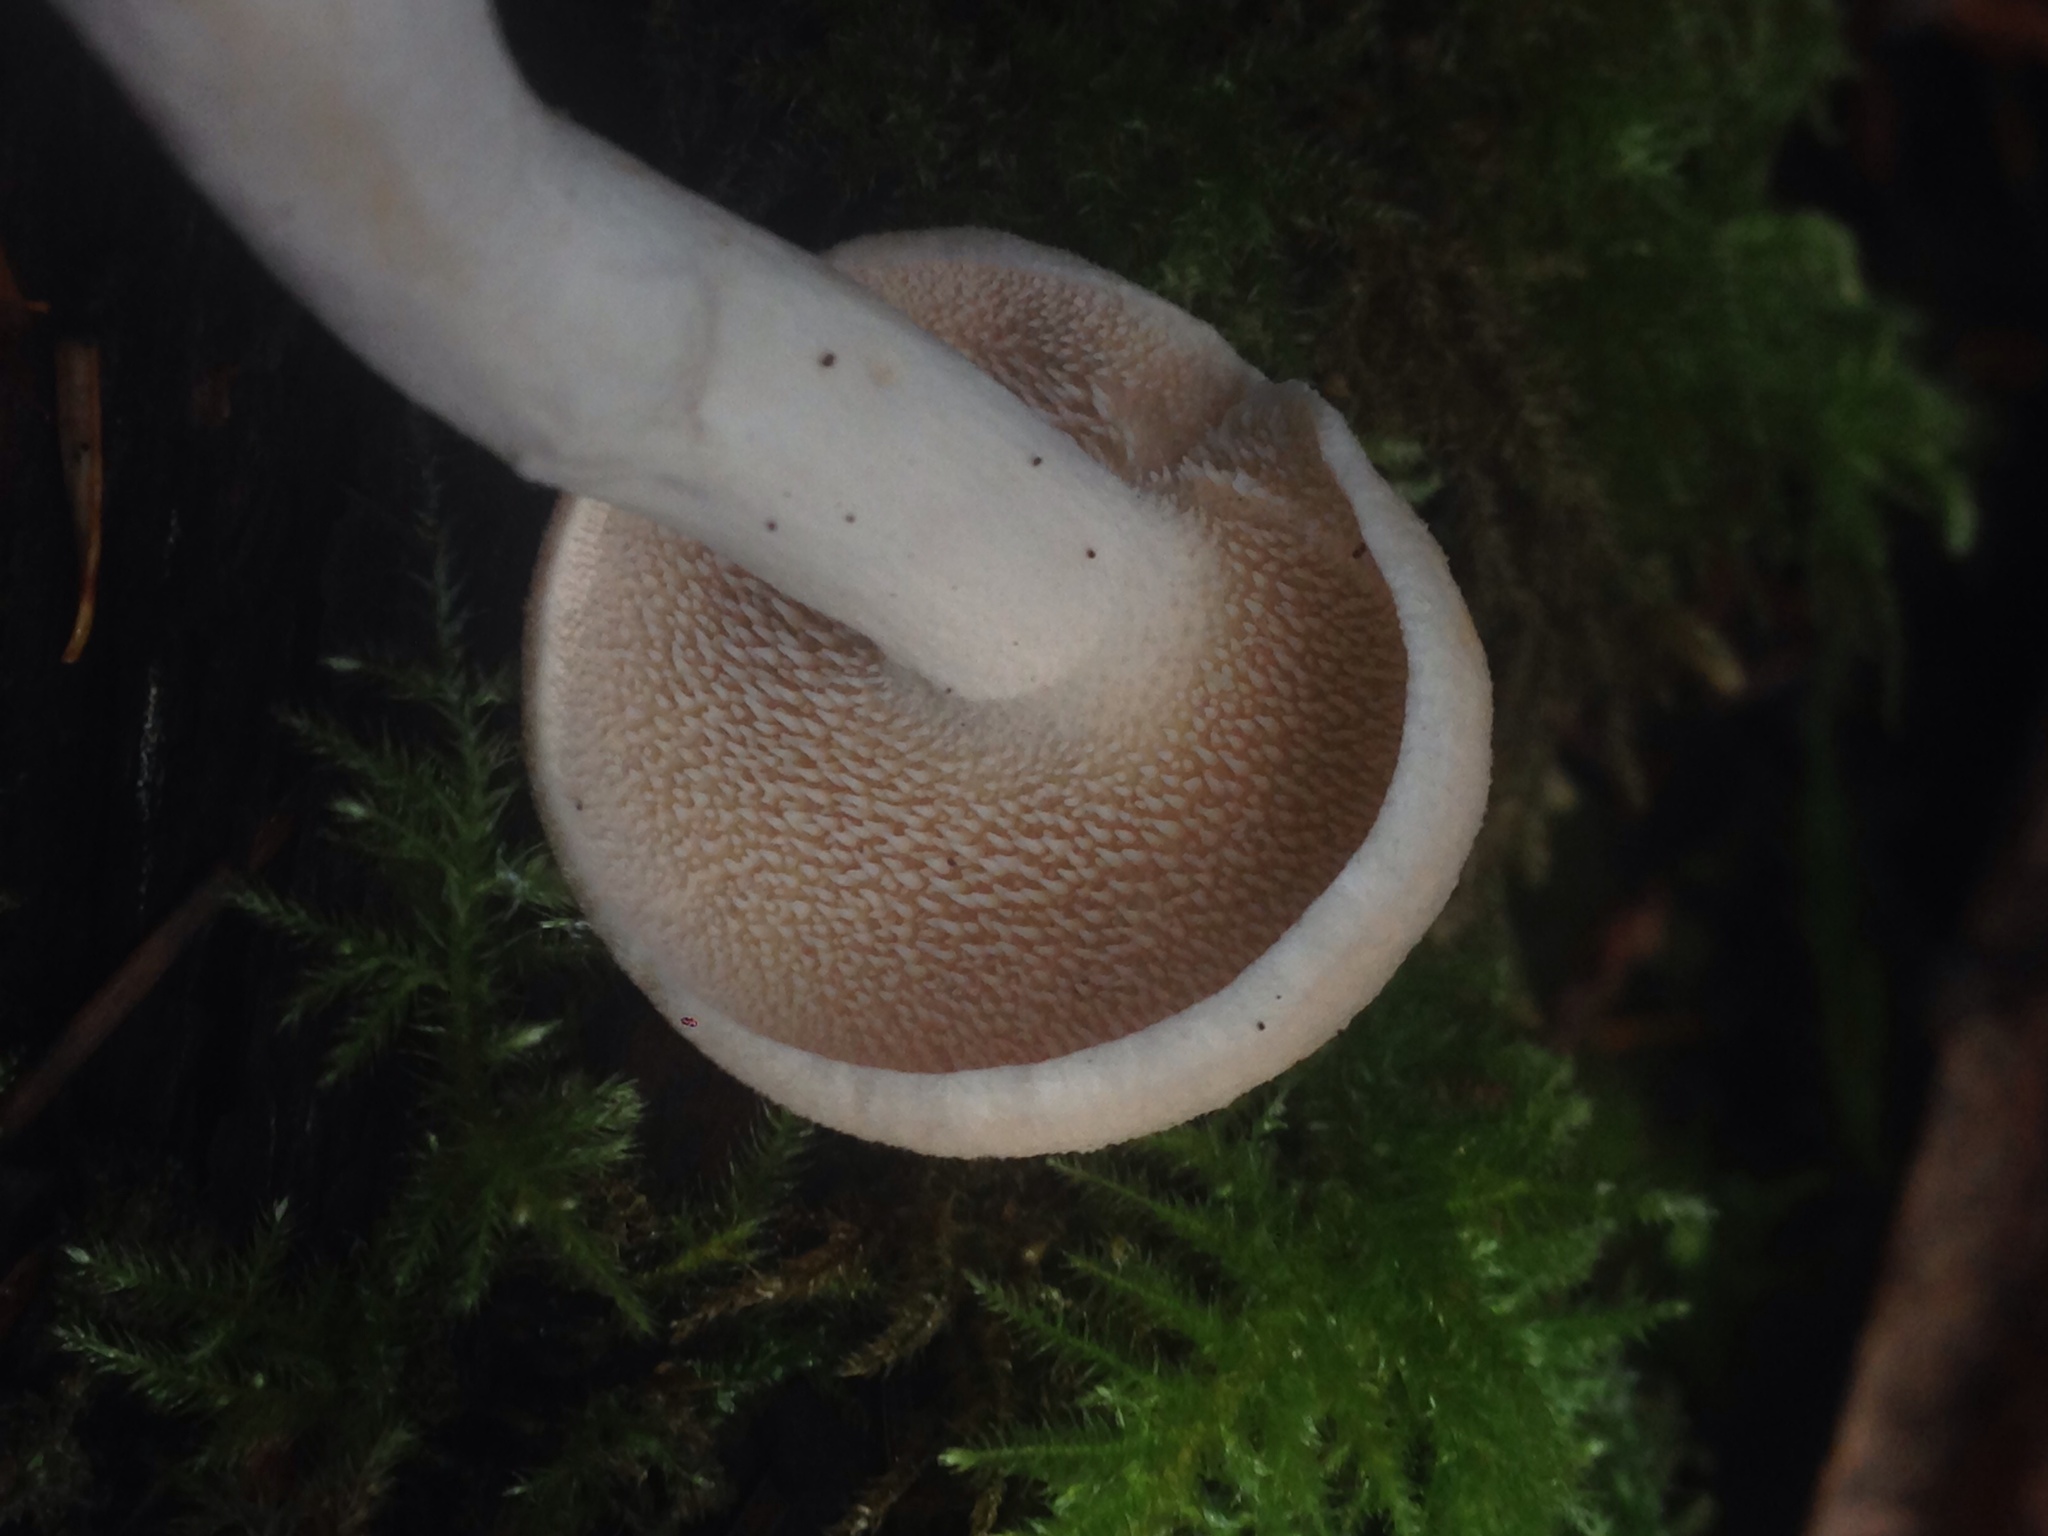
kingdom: Fungi
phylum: Basidiomycota
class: Agaricomycetes
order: Cantharellales
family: Hydnaceae
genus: Hydnum
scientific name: Hydnum oregonense
